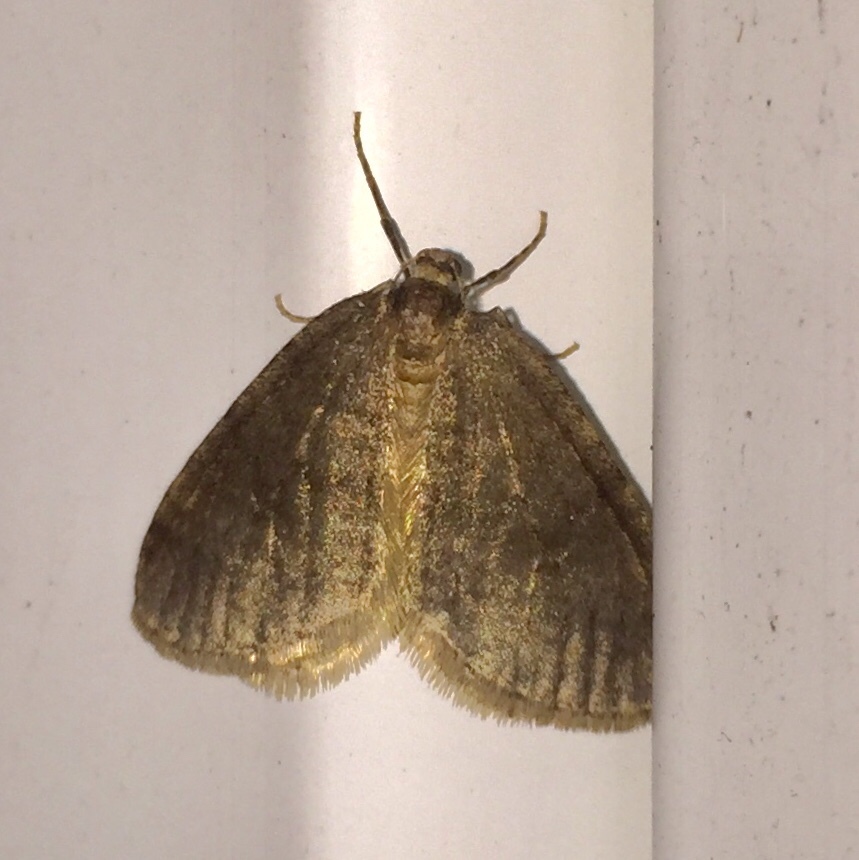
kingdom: Animalia
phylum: Arthropoda
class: Insecta
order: Lepidoptera
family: Geometridae
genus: Operophtera
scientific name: Operophtera brumata
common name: Winter moth
